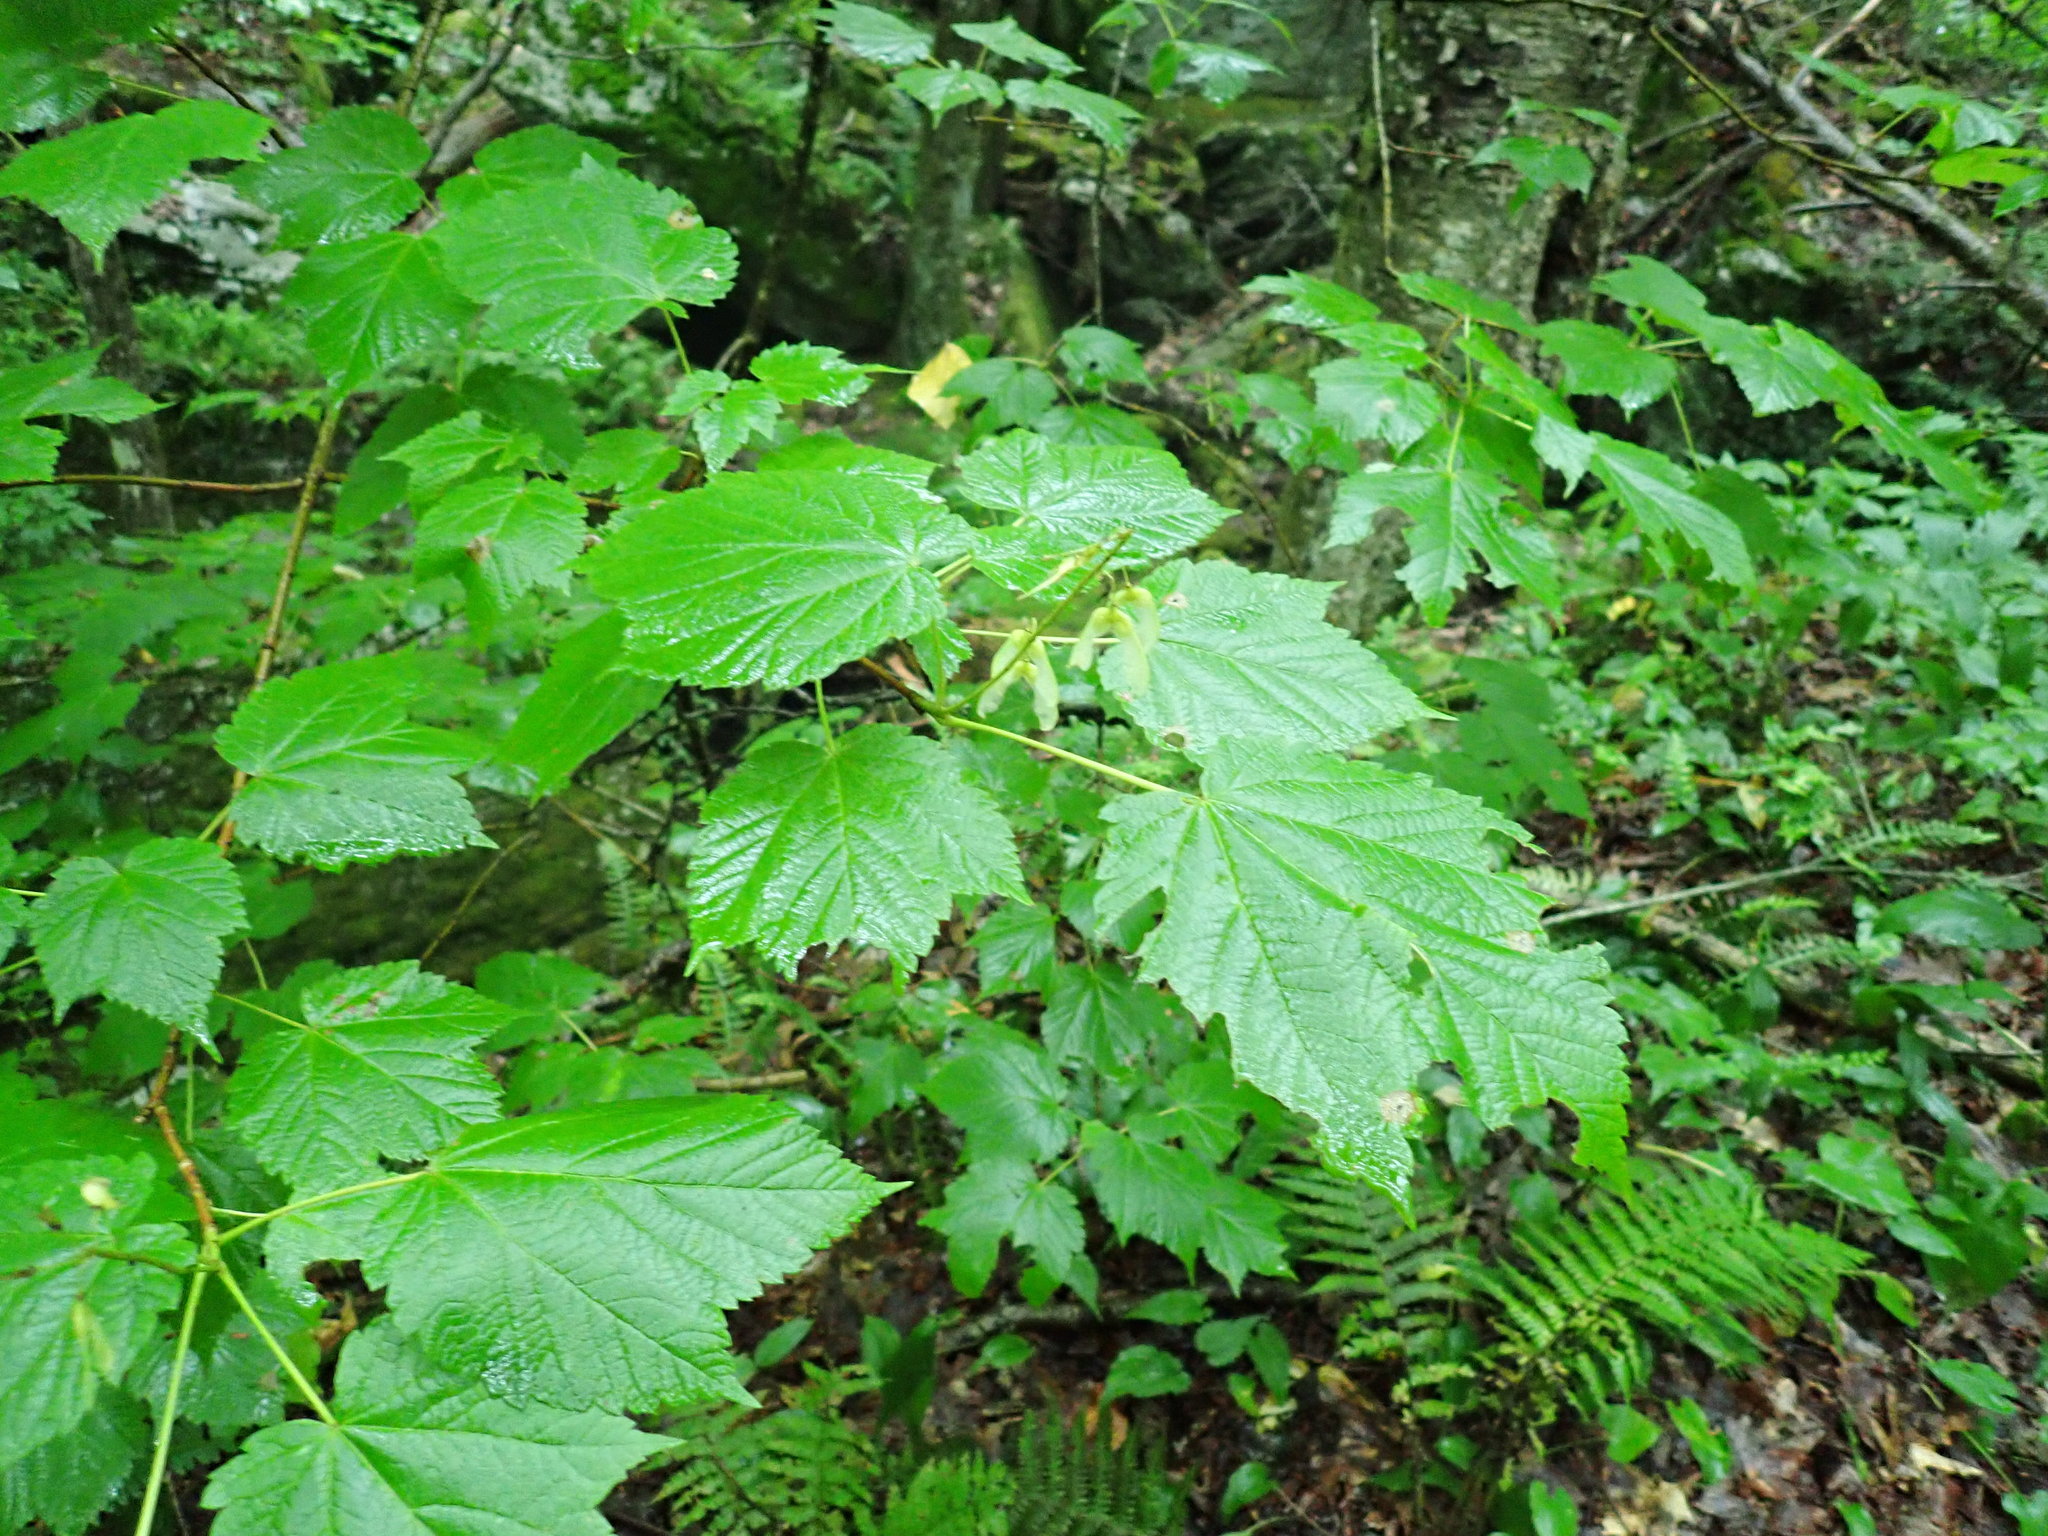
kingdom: Plantae
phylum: Tracheophyta
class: Magnoliopsida
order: Sapindales
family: Sapindaceae
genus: Acer
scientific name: Acer spicatum
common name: Mountain maple
